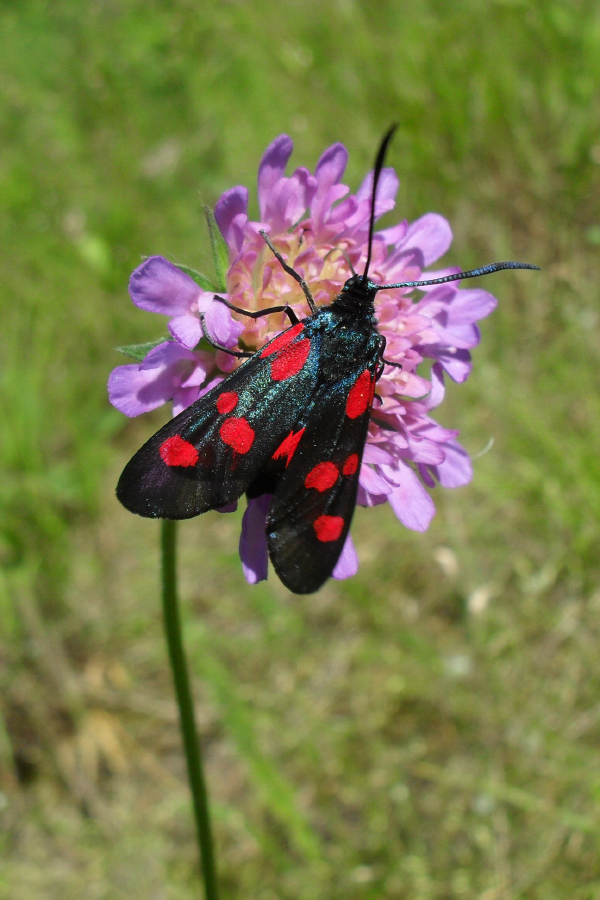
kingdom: Animalia
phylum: Arthropoda
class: Insecta
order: Lepidoptera
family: Zygaenidae
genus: Zygaena
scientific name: Zygaena lonicerae
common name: Narrow-bordered five-spot burnet
